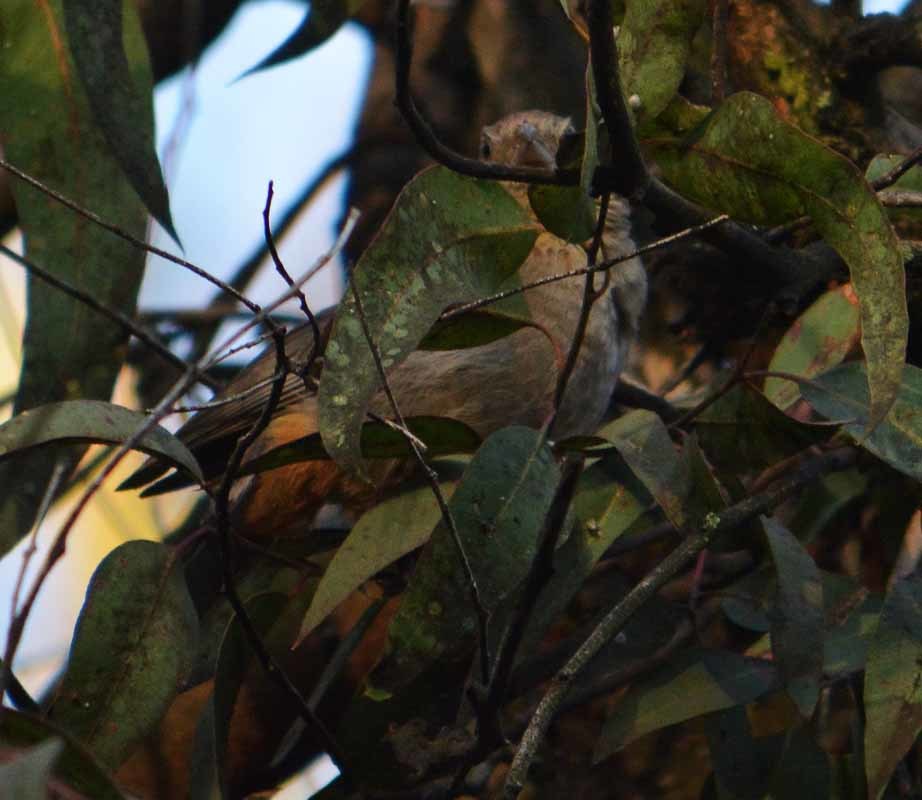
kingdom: Animalia
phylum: Chordata
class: Aves
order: Passeriformes
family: Passerellidae
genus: Melozone
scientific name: Melozone fusca
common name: Canyon towhee
